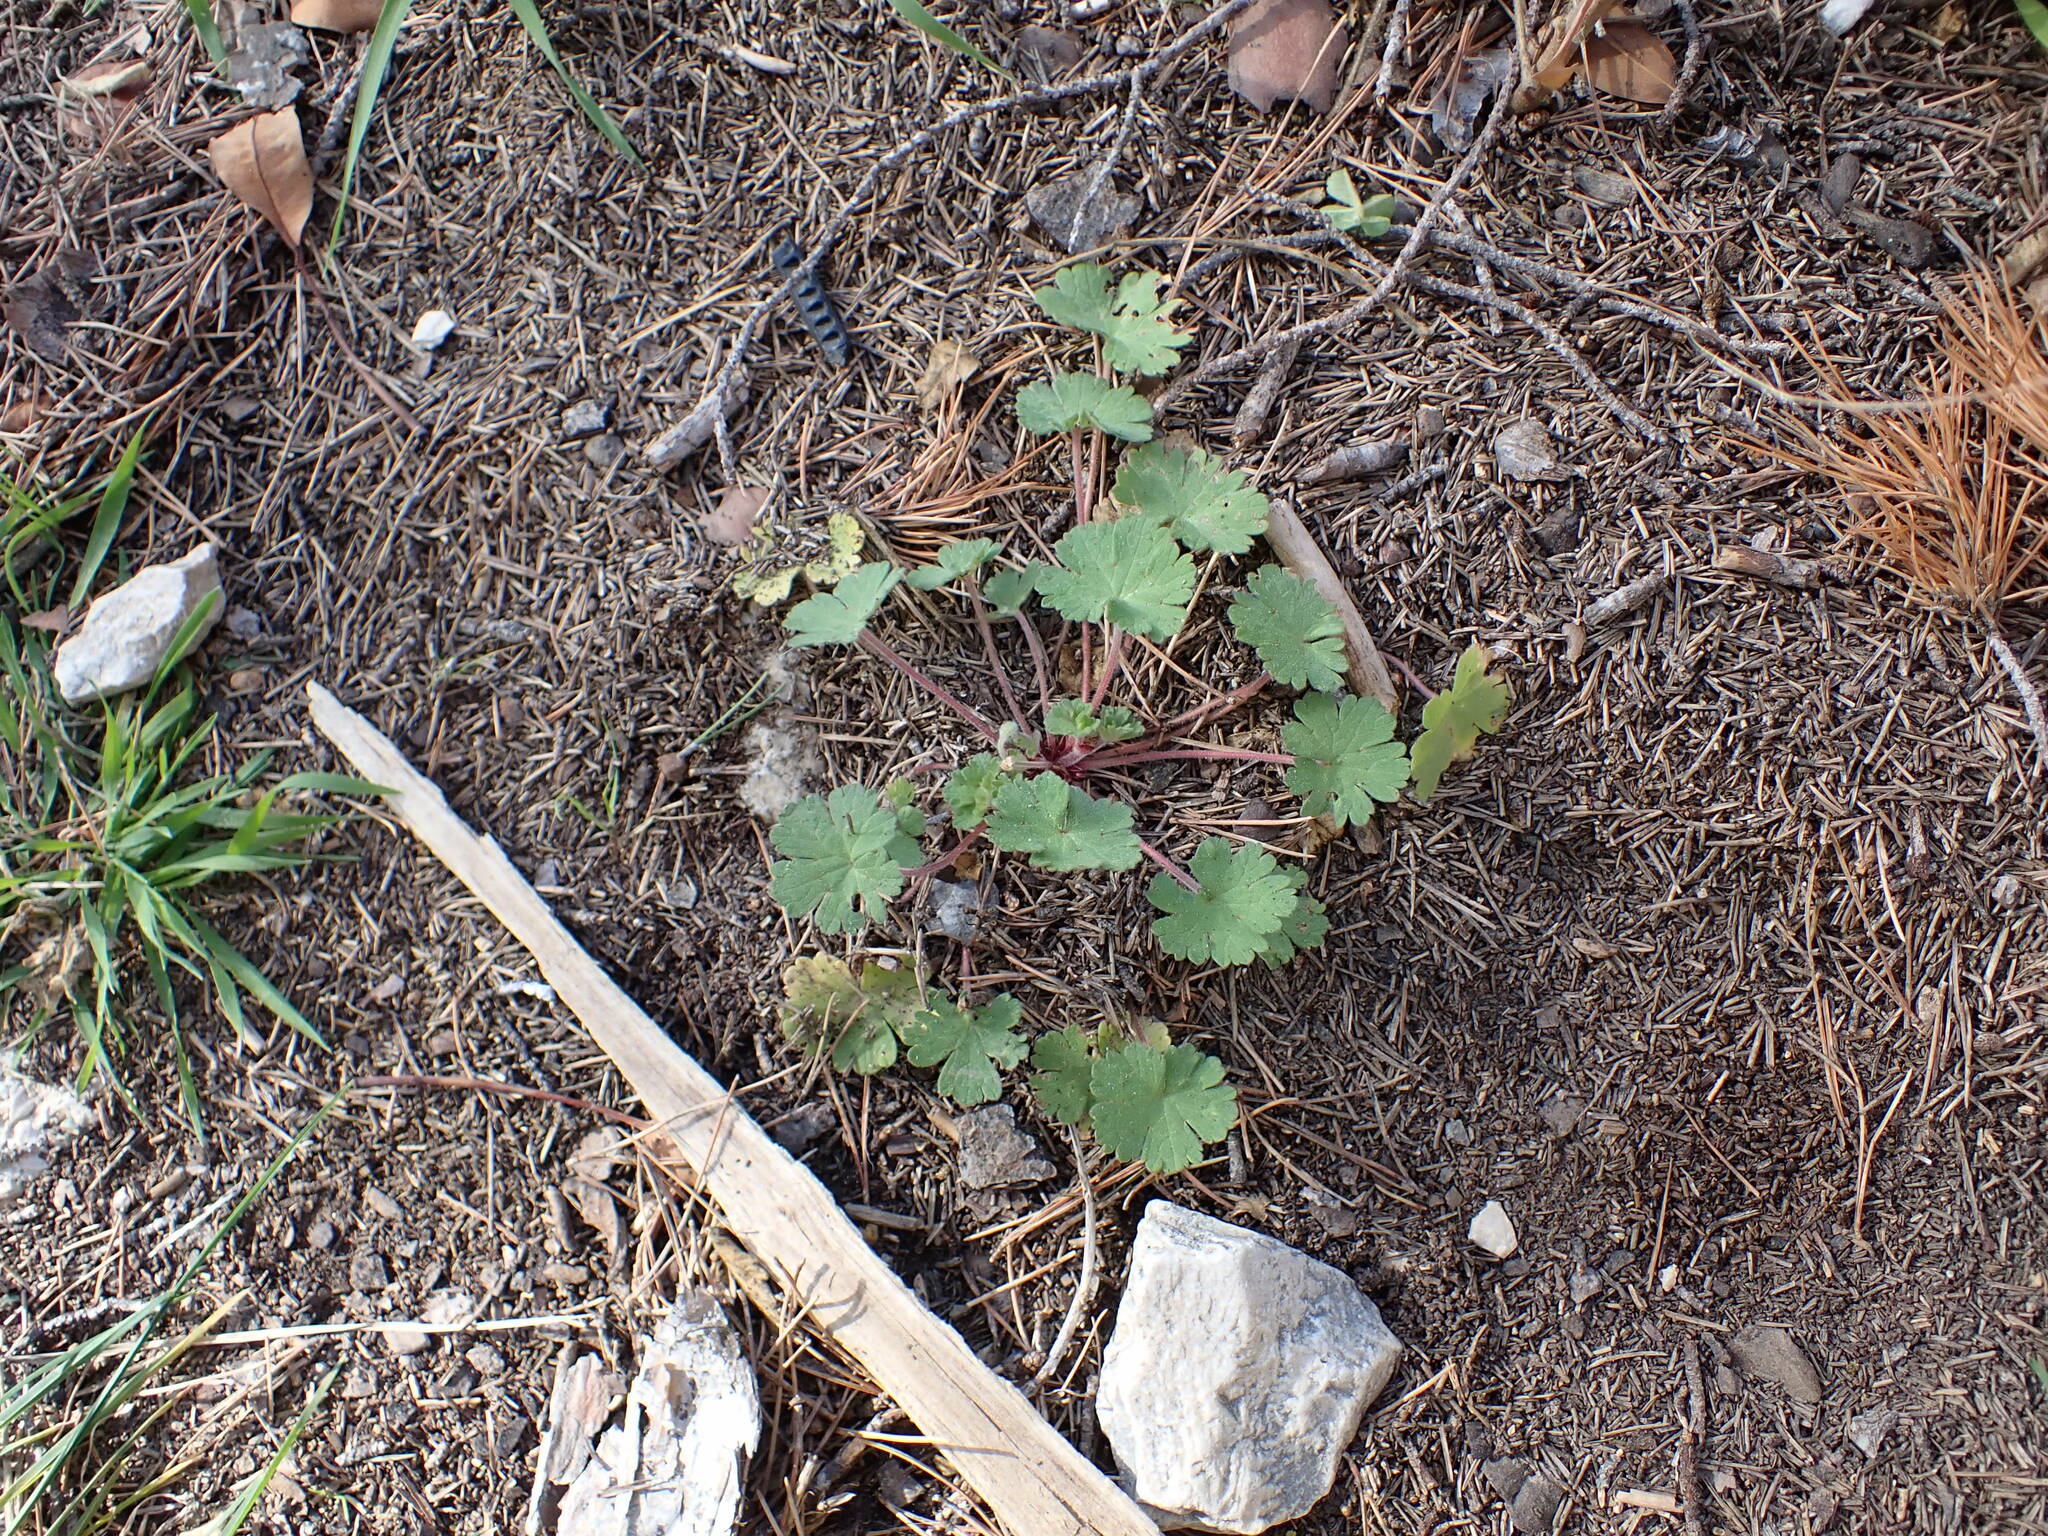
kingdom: Plantae
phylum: Tracheophyta
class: Magnoliopsida
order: Geraniales
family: Geraniaceae
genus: Geranium
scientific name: Geranium rotundifolium
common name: Round-leaved crane's-bill
